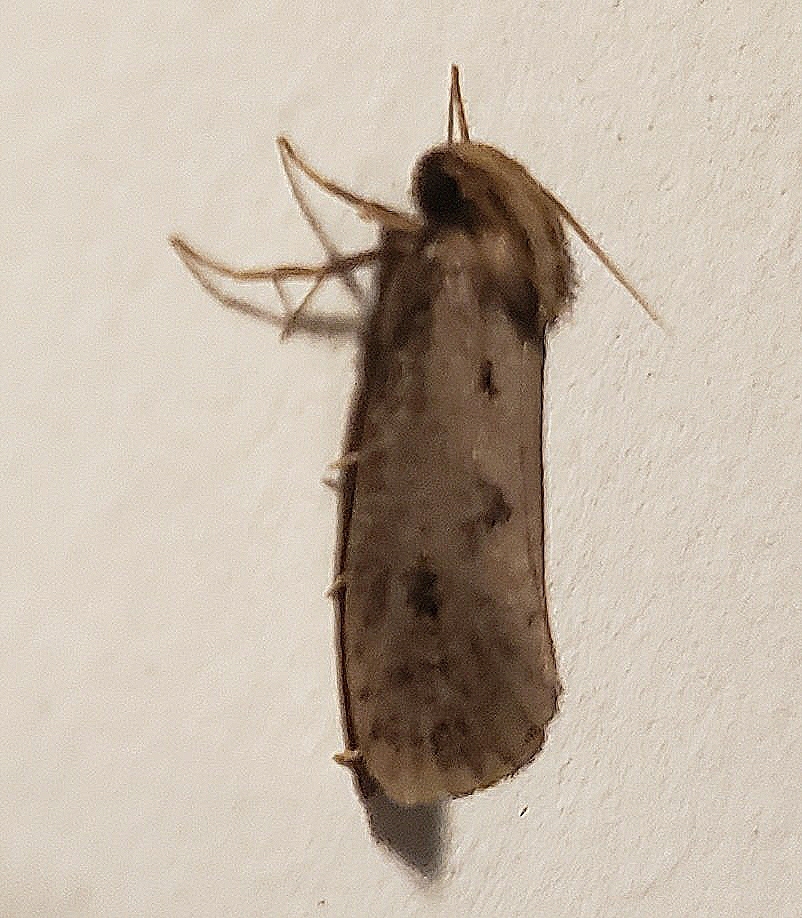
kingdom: Animalia
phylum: Arthropoda
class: Insecta
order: Lepidoptera
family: Tineidae
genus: Acrolophus
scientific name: Acrolophus popeanella
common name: Clemens' grass tubeworm moth
